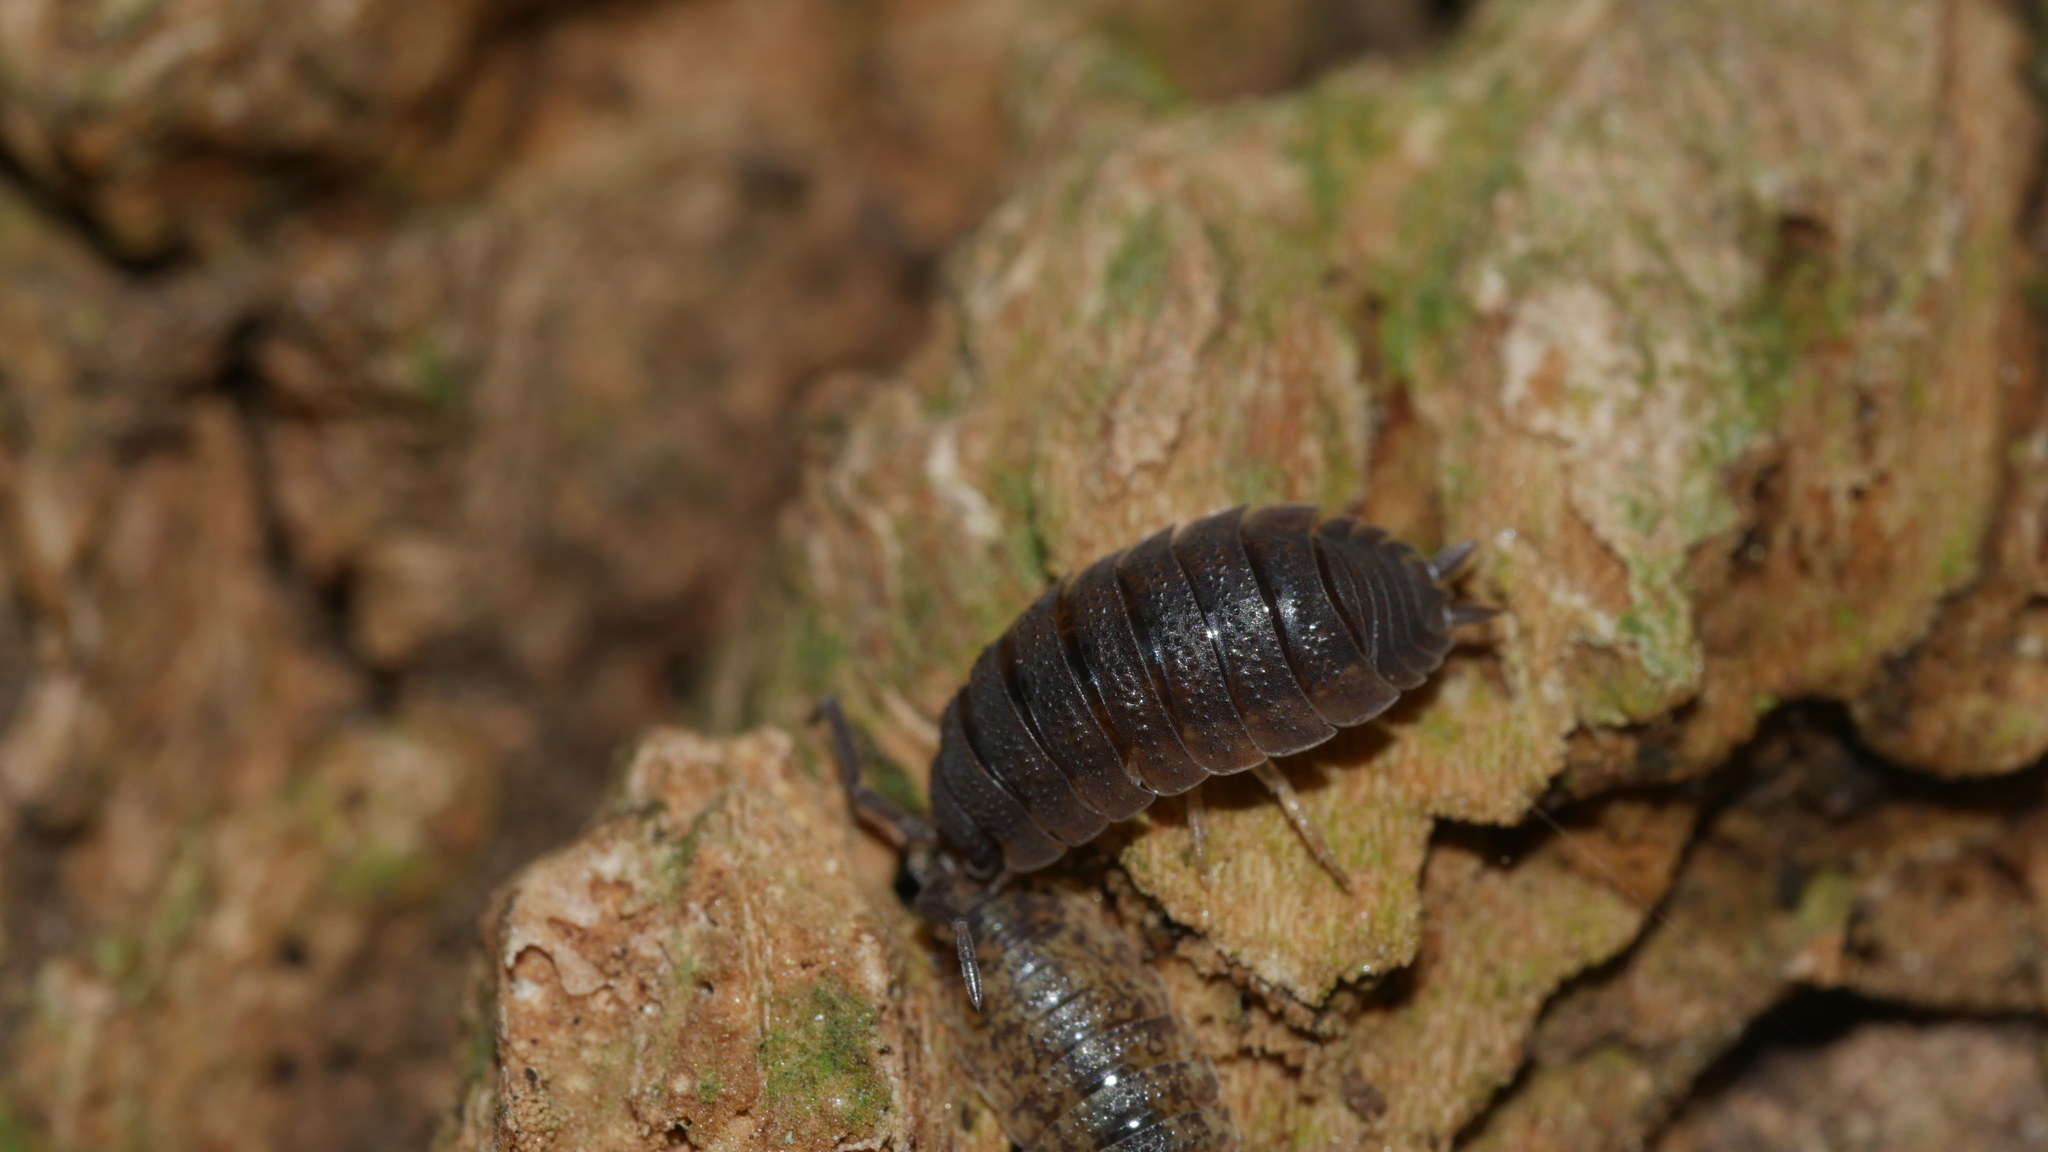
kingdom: Animalia
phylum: Arthropoda
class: Malacostraca
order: Isopoda
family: Porcellionidae
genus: Porcellio
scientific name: Porcellio scaber
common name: Common rough woodlouse
